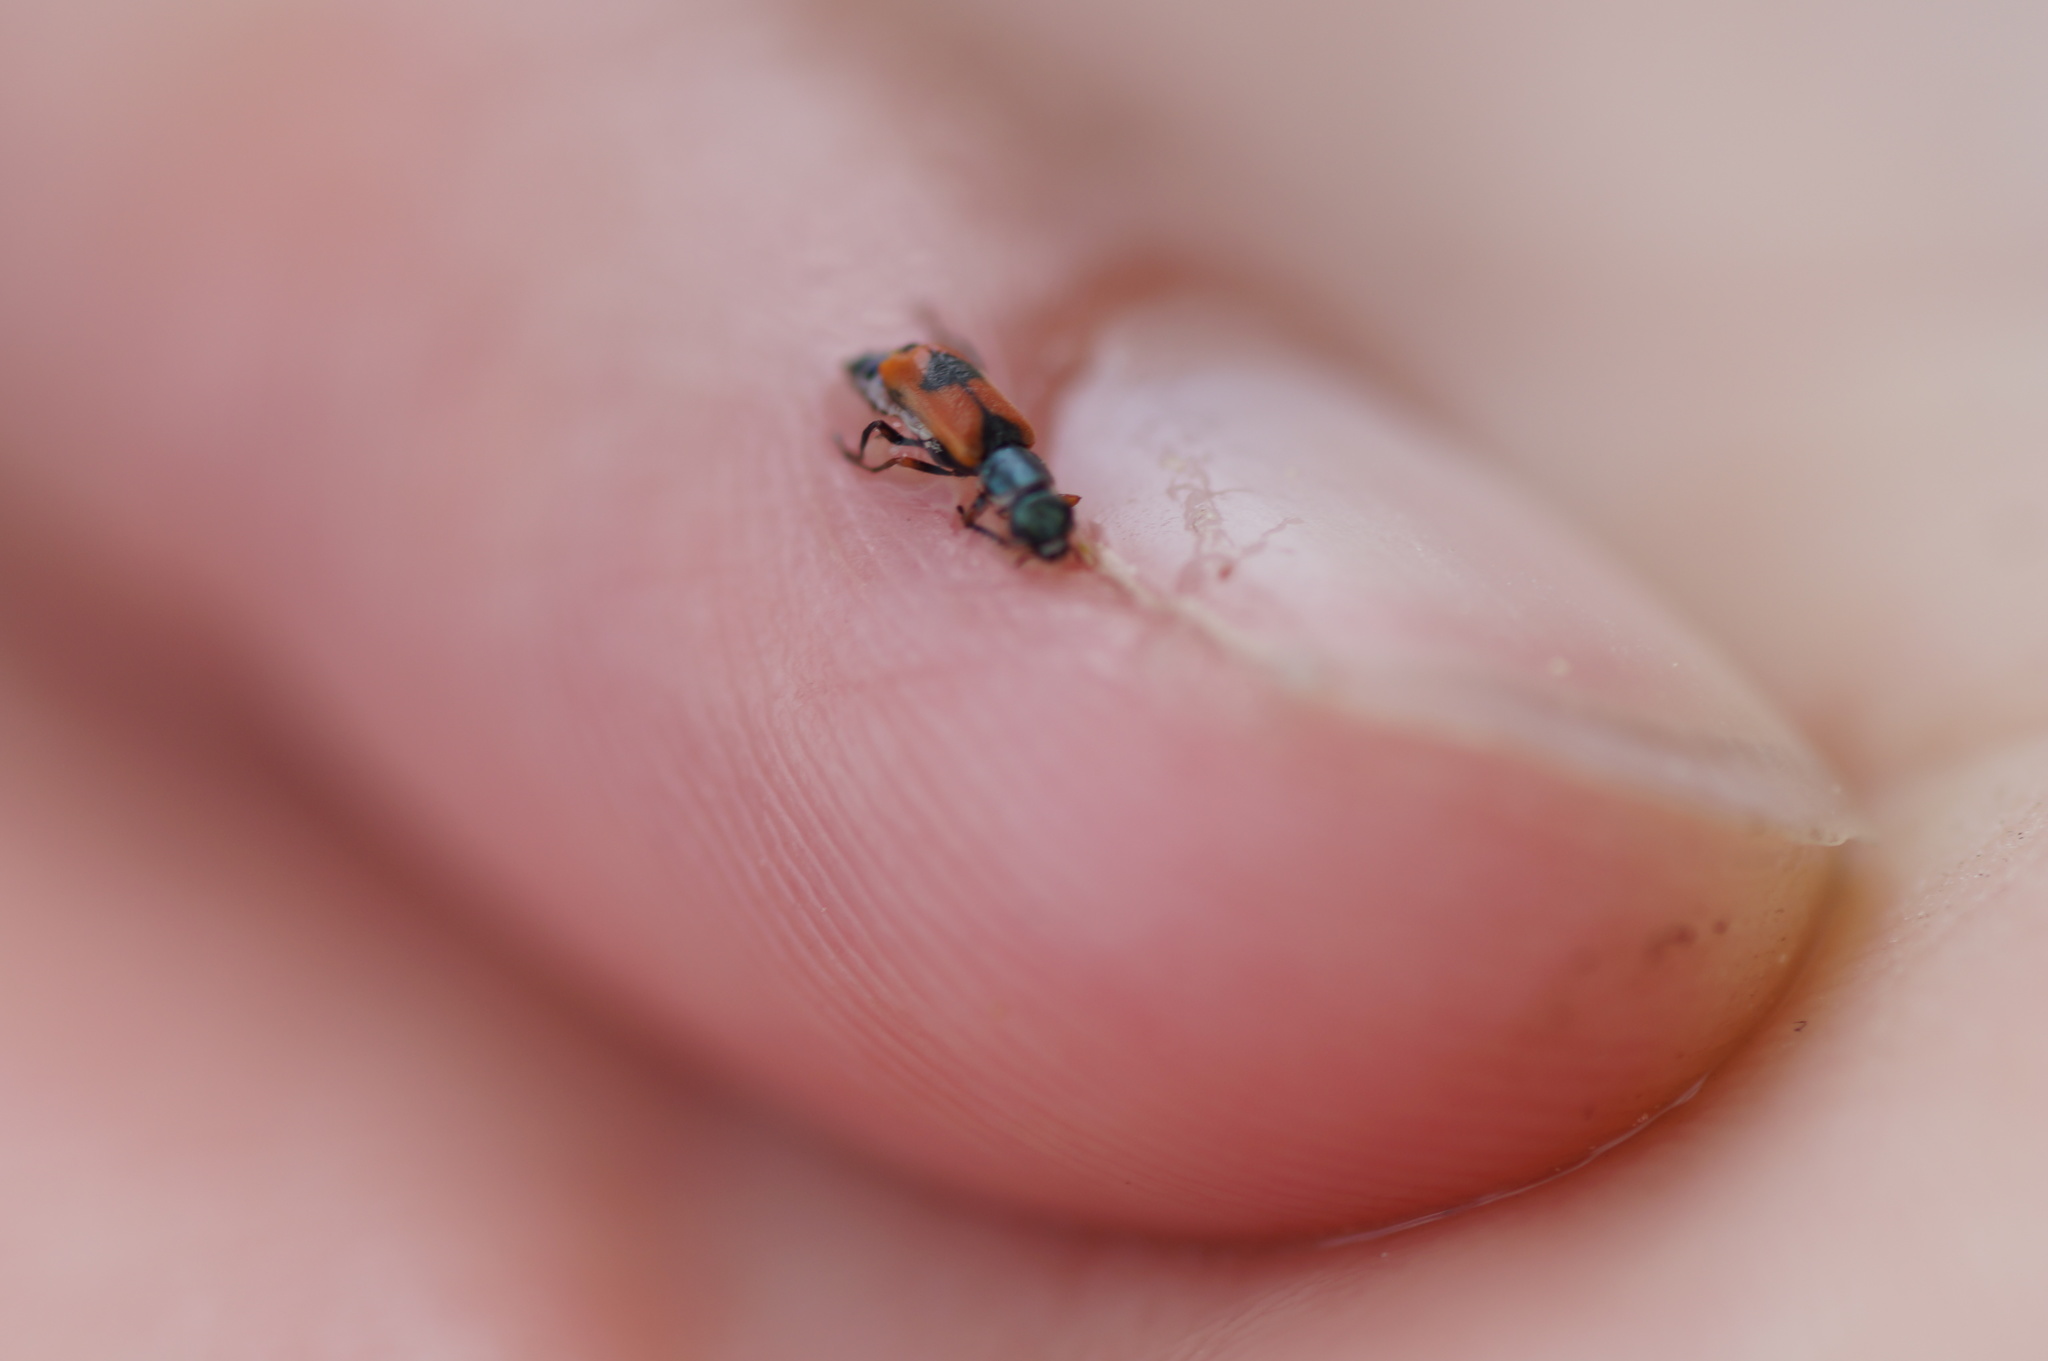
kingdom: Animalia
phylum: Arthropoda
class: Insecta
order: Coleoptera
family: Melyridae
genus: Anthocomus
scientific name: Anthocomus equestris
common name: Black-banded soft-winged flower beetle
